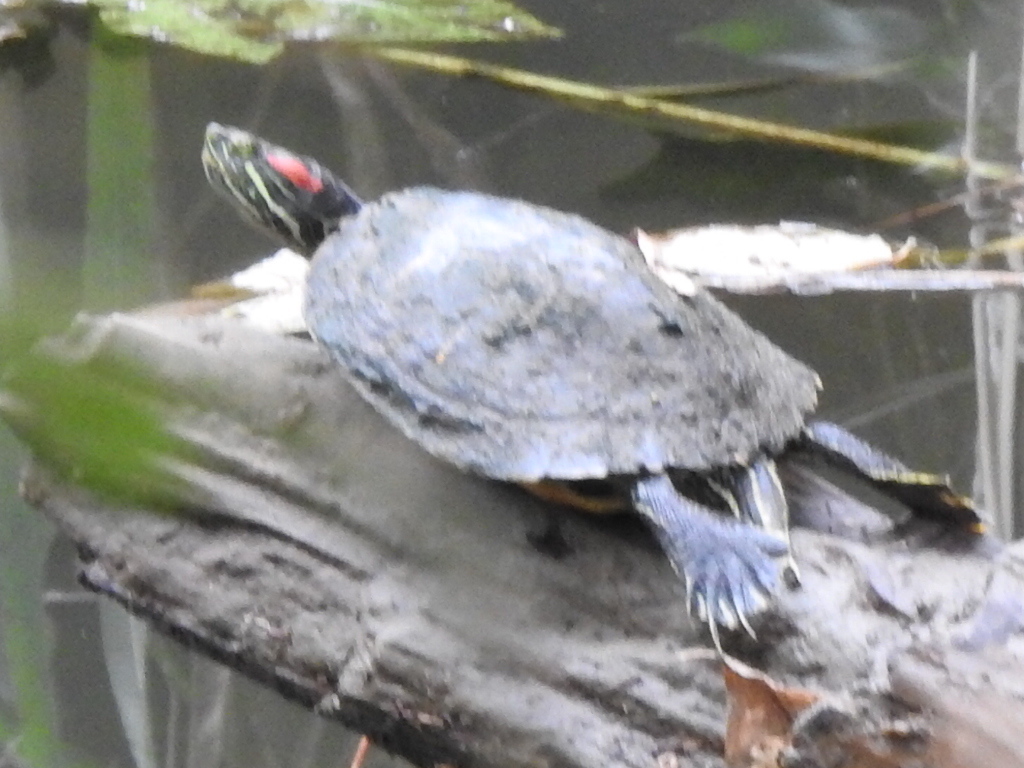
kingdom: Animalia
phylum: Chordata
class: Testudines
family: Emydidae
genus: Trachemys
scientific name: Trachemys scripta
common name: Slider
